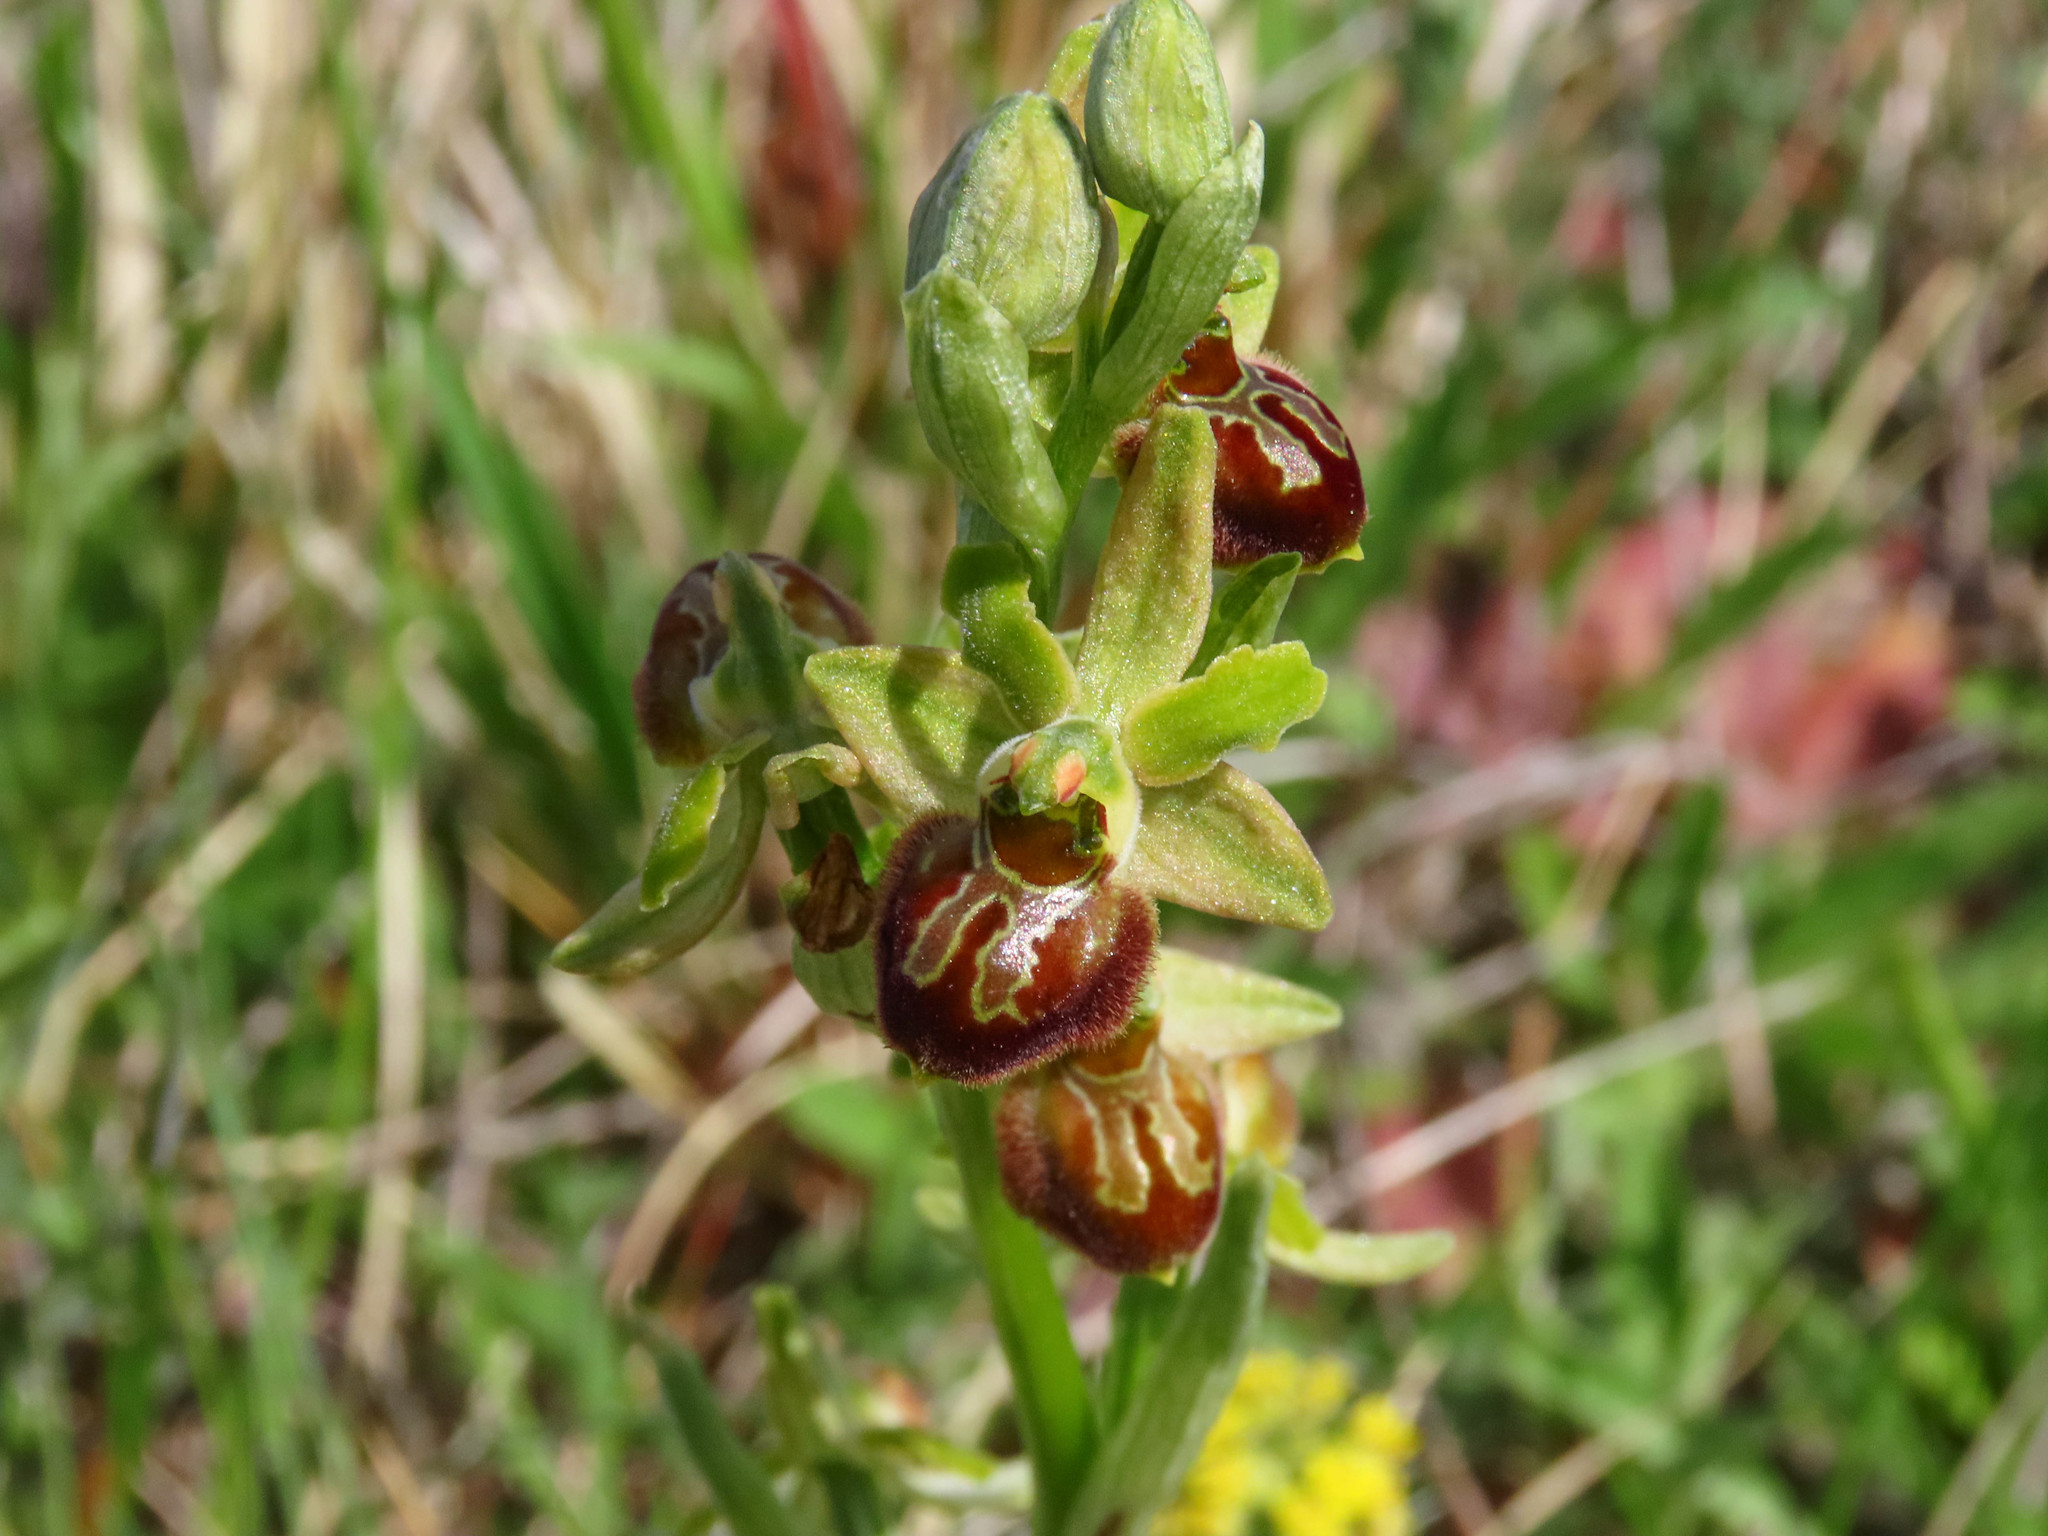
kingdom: Plantae
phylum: Tracheophyta
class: Liliopsida
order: Asparagales
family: Orchidaceae
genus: Ophrys
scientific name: Ophrys sphegodes
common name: Early spider-orchid
